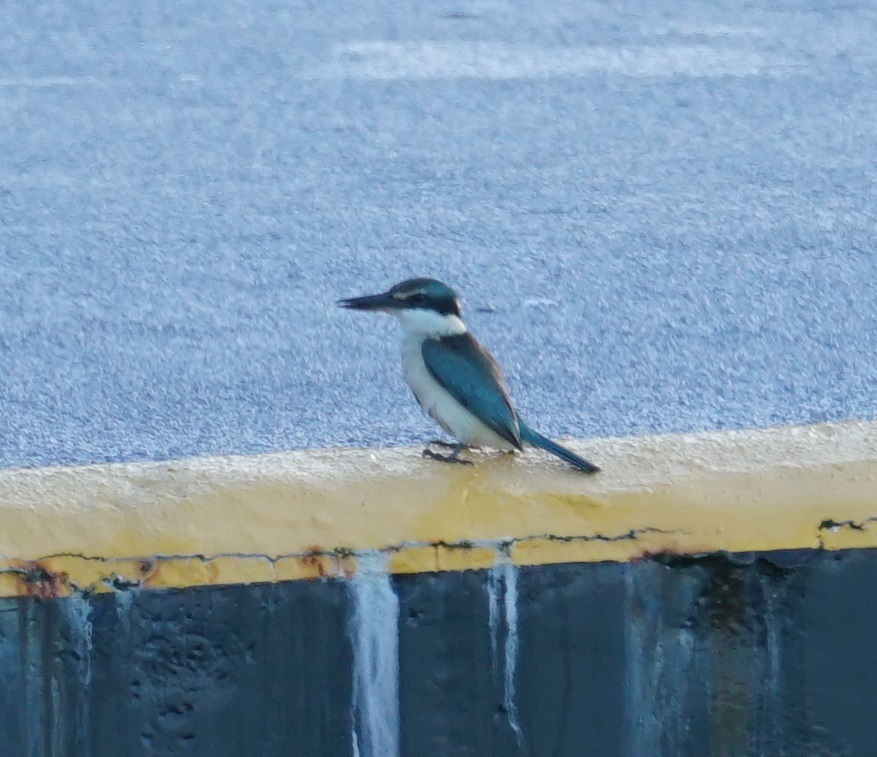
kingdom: Animalia
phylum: Chordata
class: Aves
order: Coraciiformes
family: Alcedinidae
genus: Todiramphus
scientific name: Todiramphus sanctus
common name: Sacred kingfisher
